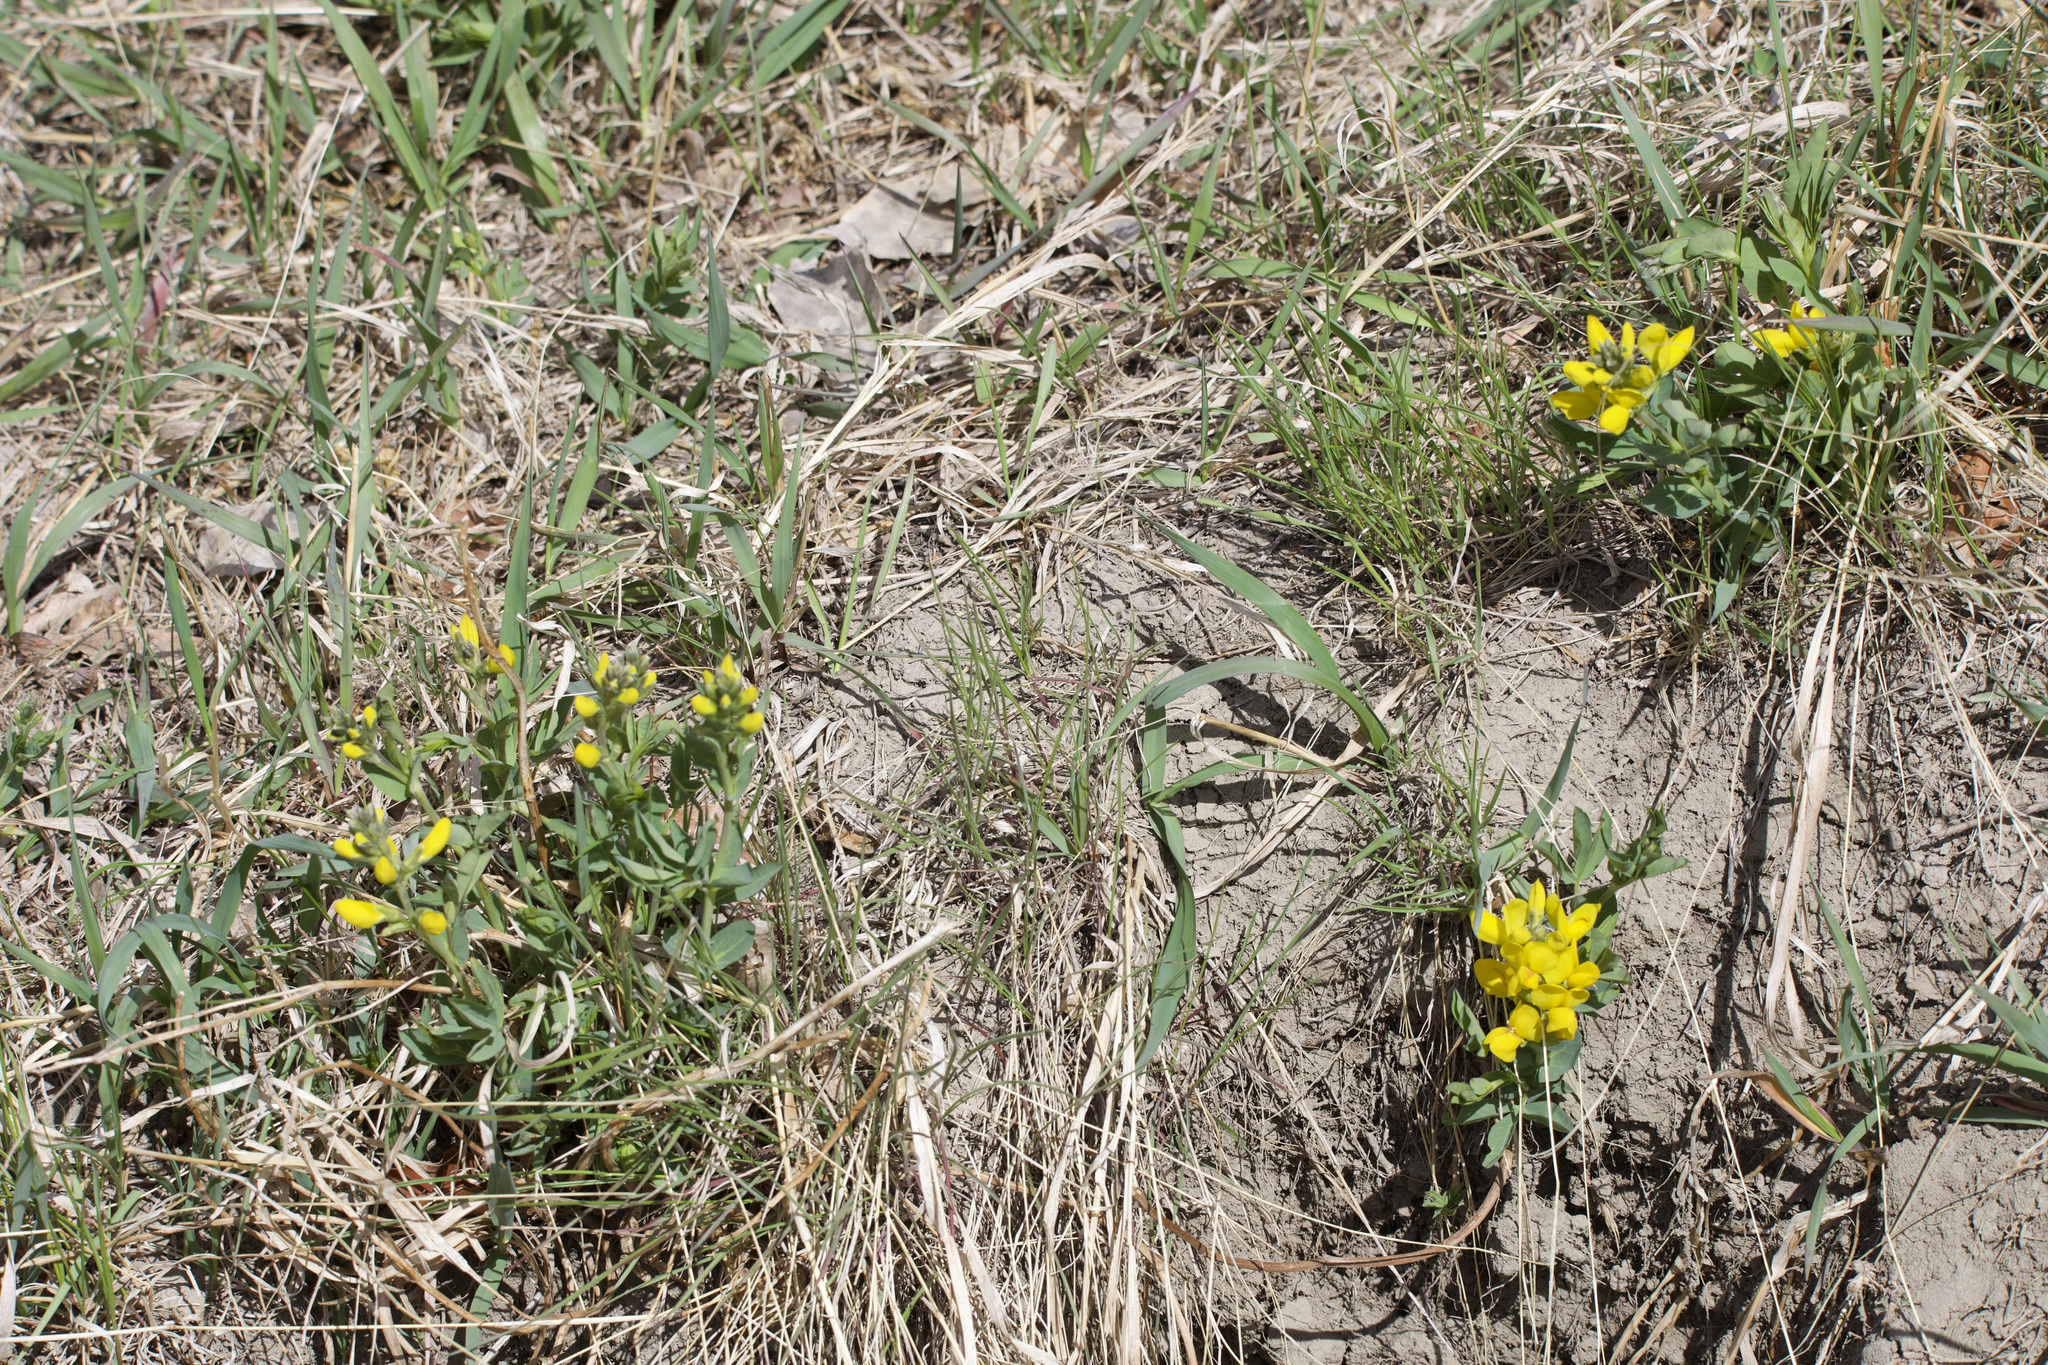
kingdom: Plantae
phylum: Tracheophyta
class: Magnoliopsida
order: Fabales
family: Fabaceae
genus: Thermopsis
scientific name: Thermopsis rhombifolia
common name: Circle-pod-pea
